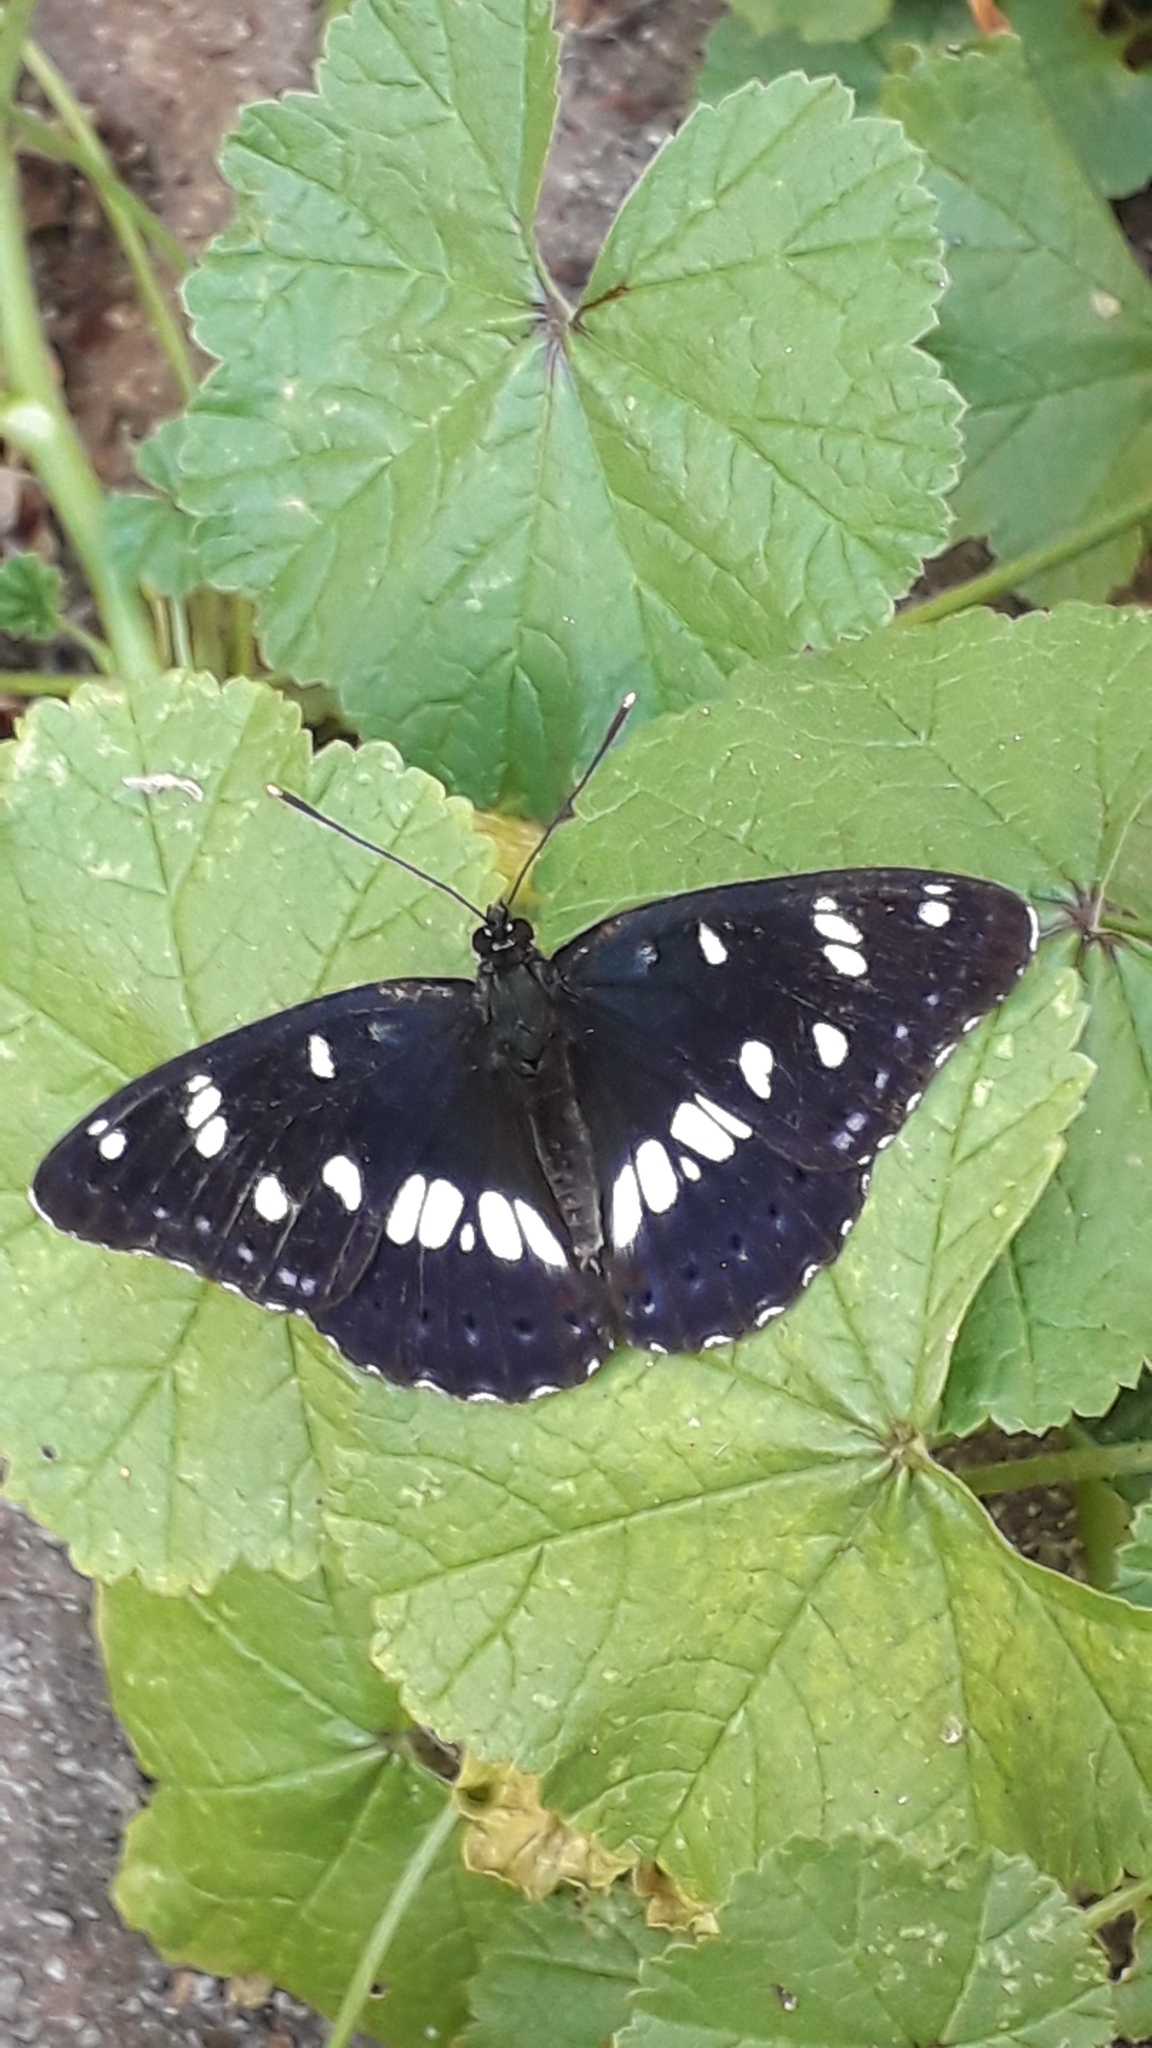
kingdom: Animalia
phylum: Arthropoda
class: Insecta
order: Lepidoptera
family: Nymphalidae
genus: Limenitis
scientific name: Limenitis reducta
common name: Southern white admiral
